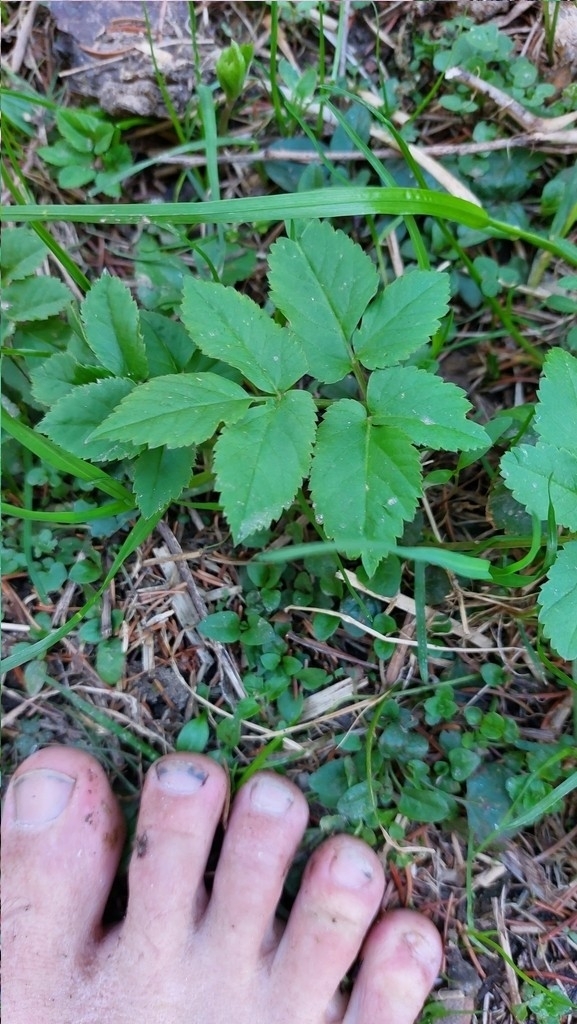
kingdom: Plantae
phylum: Tracheophyta
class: Magnoliopsida
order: Apiales
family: Apiaceae
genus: Aegopodium
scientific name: Aegopodium podagraria
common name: Ground-elder
